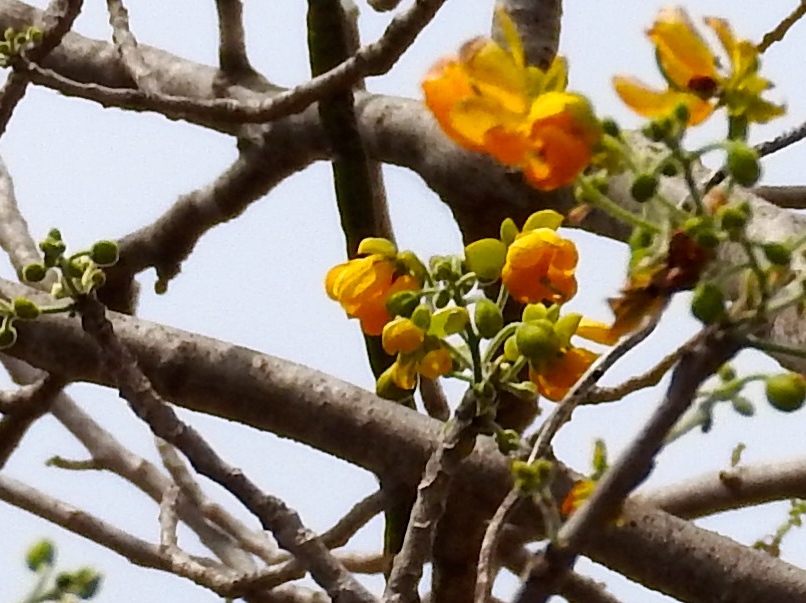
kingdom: Plantae
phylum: Tracheophyta
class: Magnoliopsida
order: Fabales
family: Fabaceae
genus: Senna
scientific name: Senna atomaria
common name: Flor de san jose
